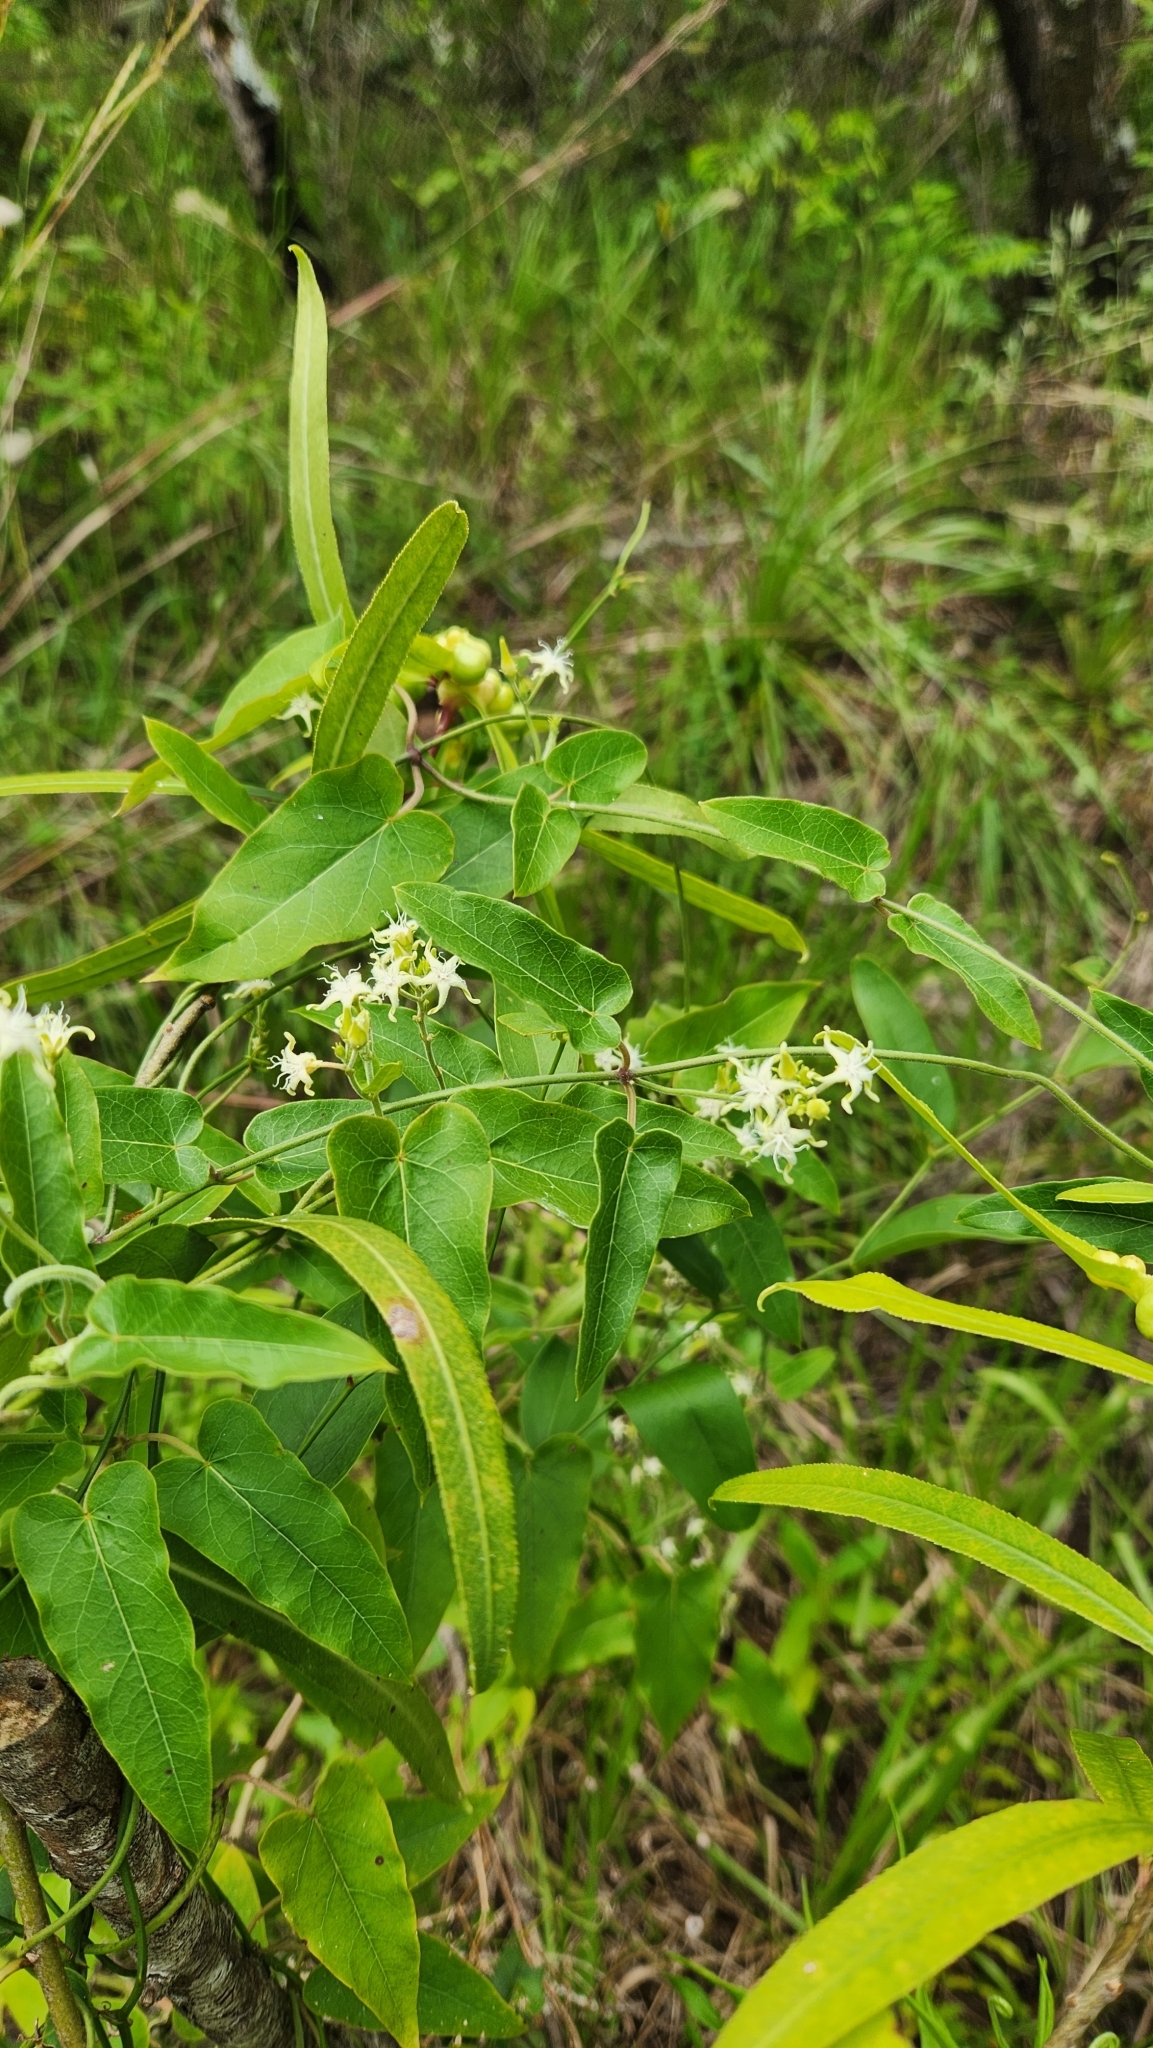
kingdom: Plantae
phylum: Tracheophyta
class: Magnoliopsida
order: Gentianales
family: Apocynaceae
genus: Oxypetalum
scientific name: Oxypetalum sylvestre
